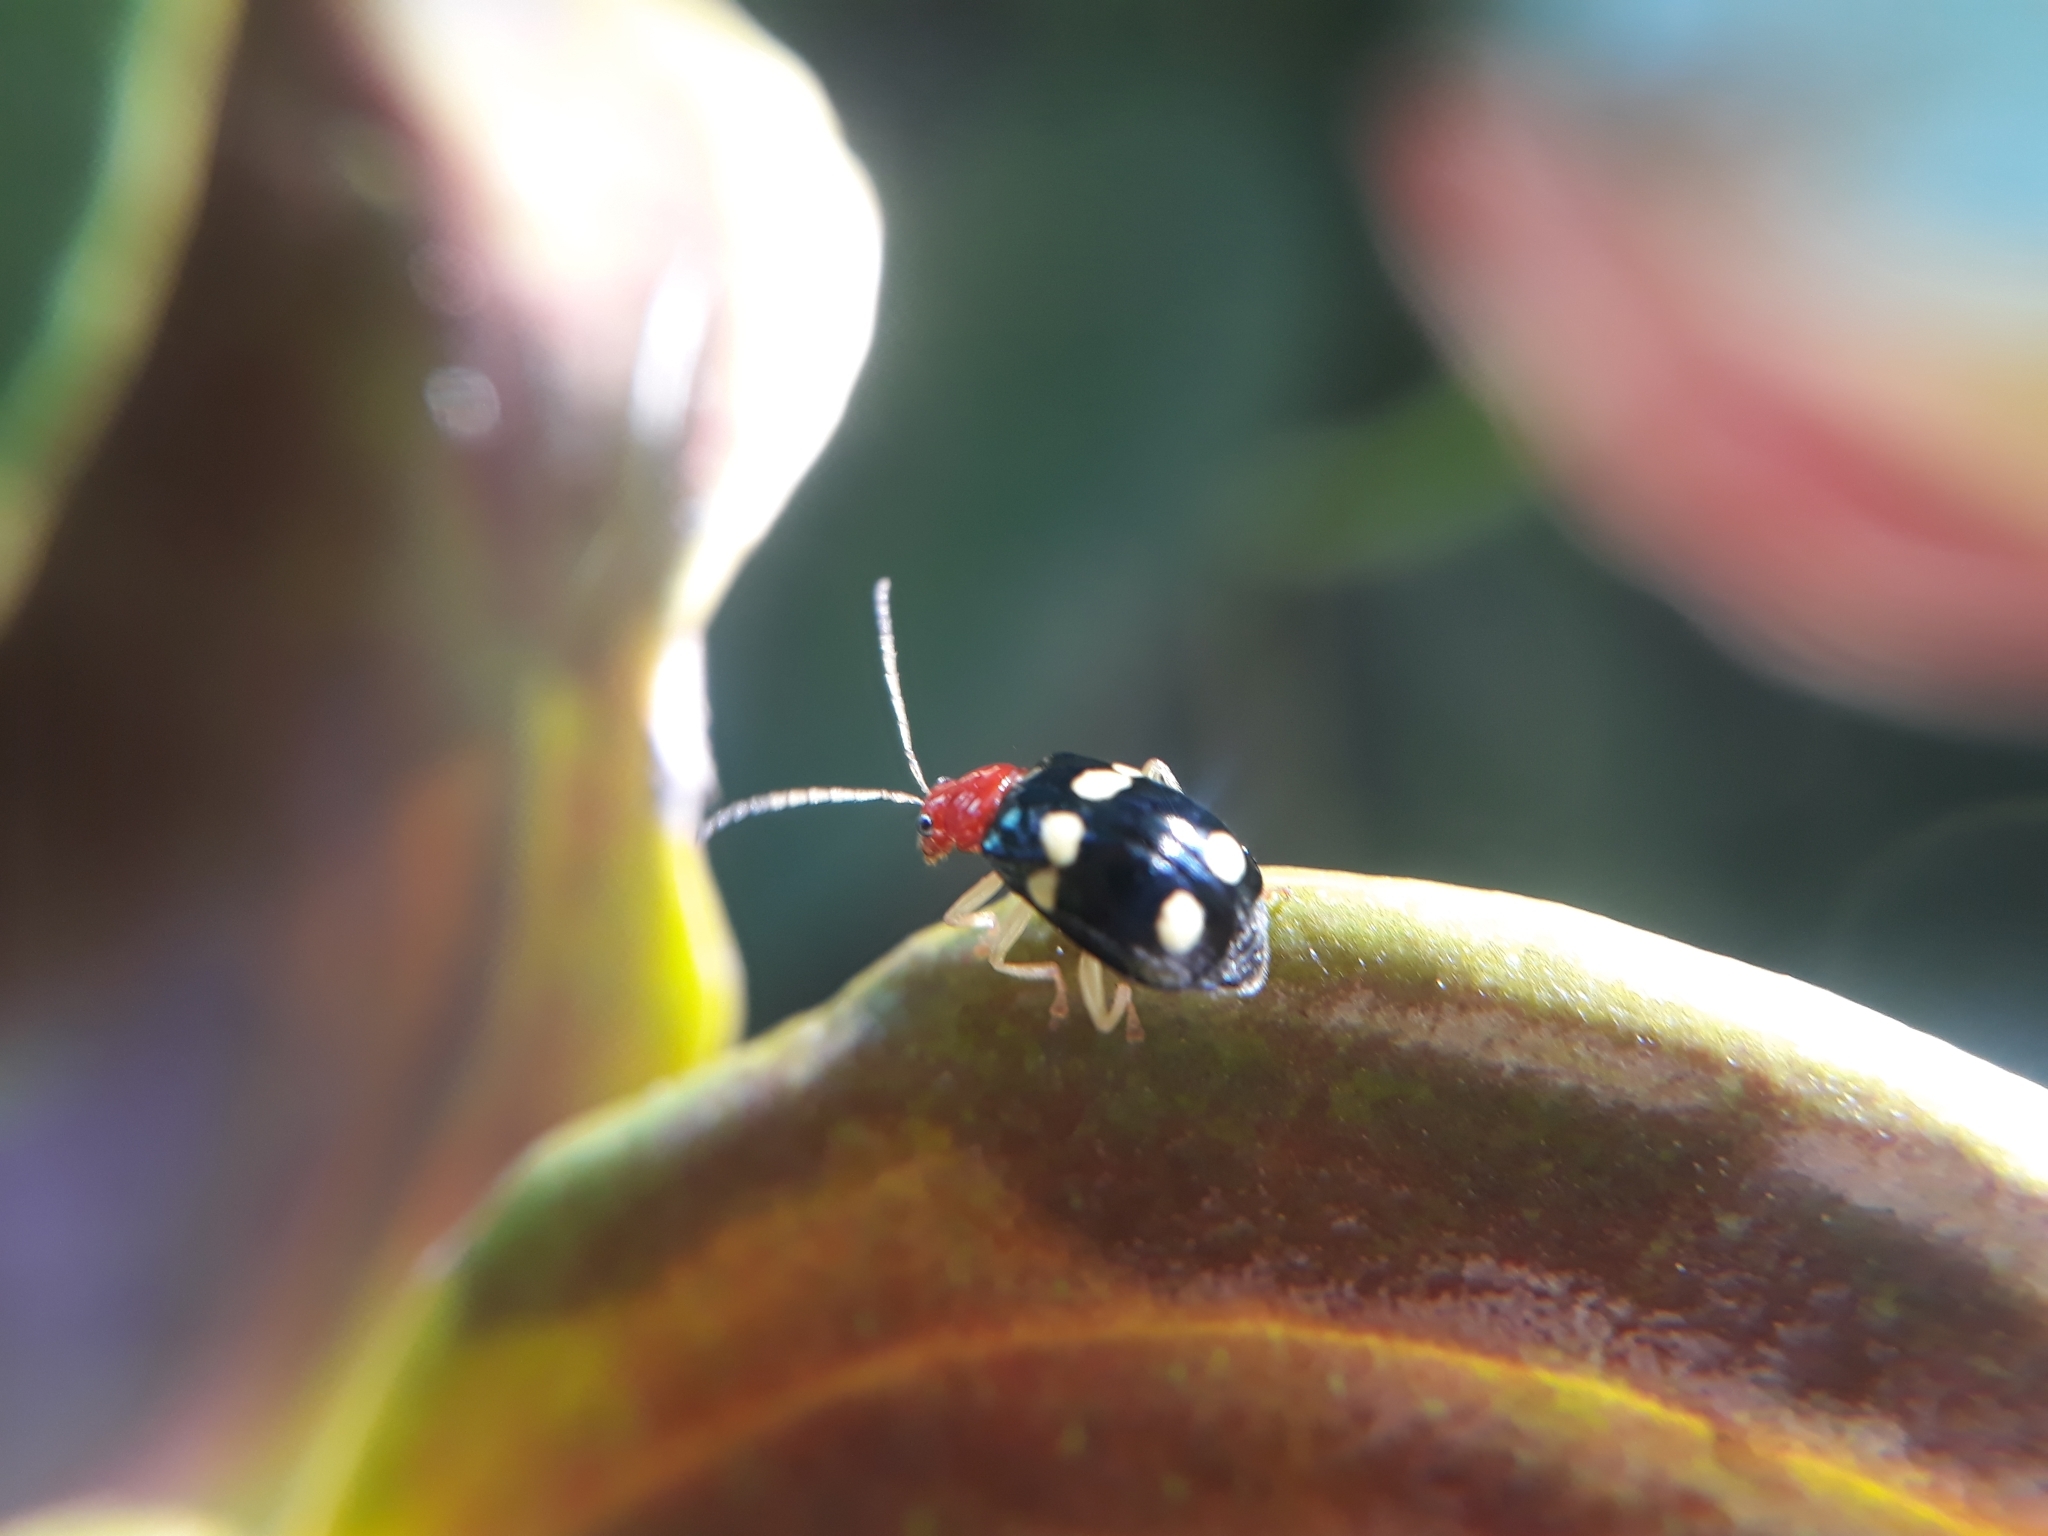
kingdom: Animalia
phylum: Arthropoda
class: Insecta
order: Coleoptera
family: Chrysomelidae
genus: Gynandrobrotica
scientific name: Gynandrobrotica
